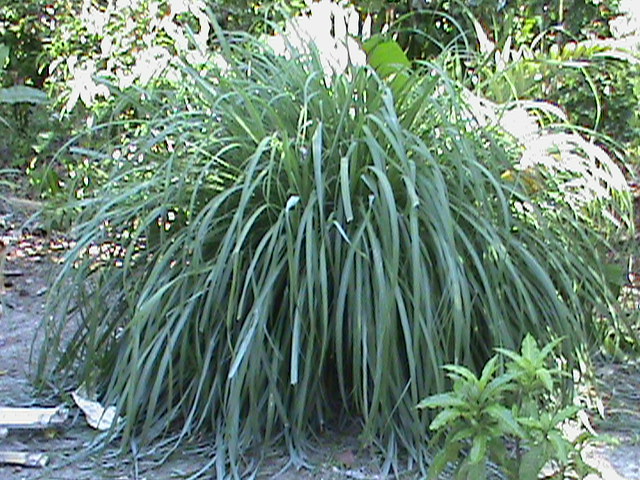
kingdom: Plantae
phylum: Tracheophyta
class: Liliopsida
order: Poales
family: Poaceae
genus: Cymbopogon
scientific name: Cymbopogon citratus
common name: Lemon grass
